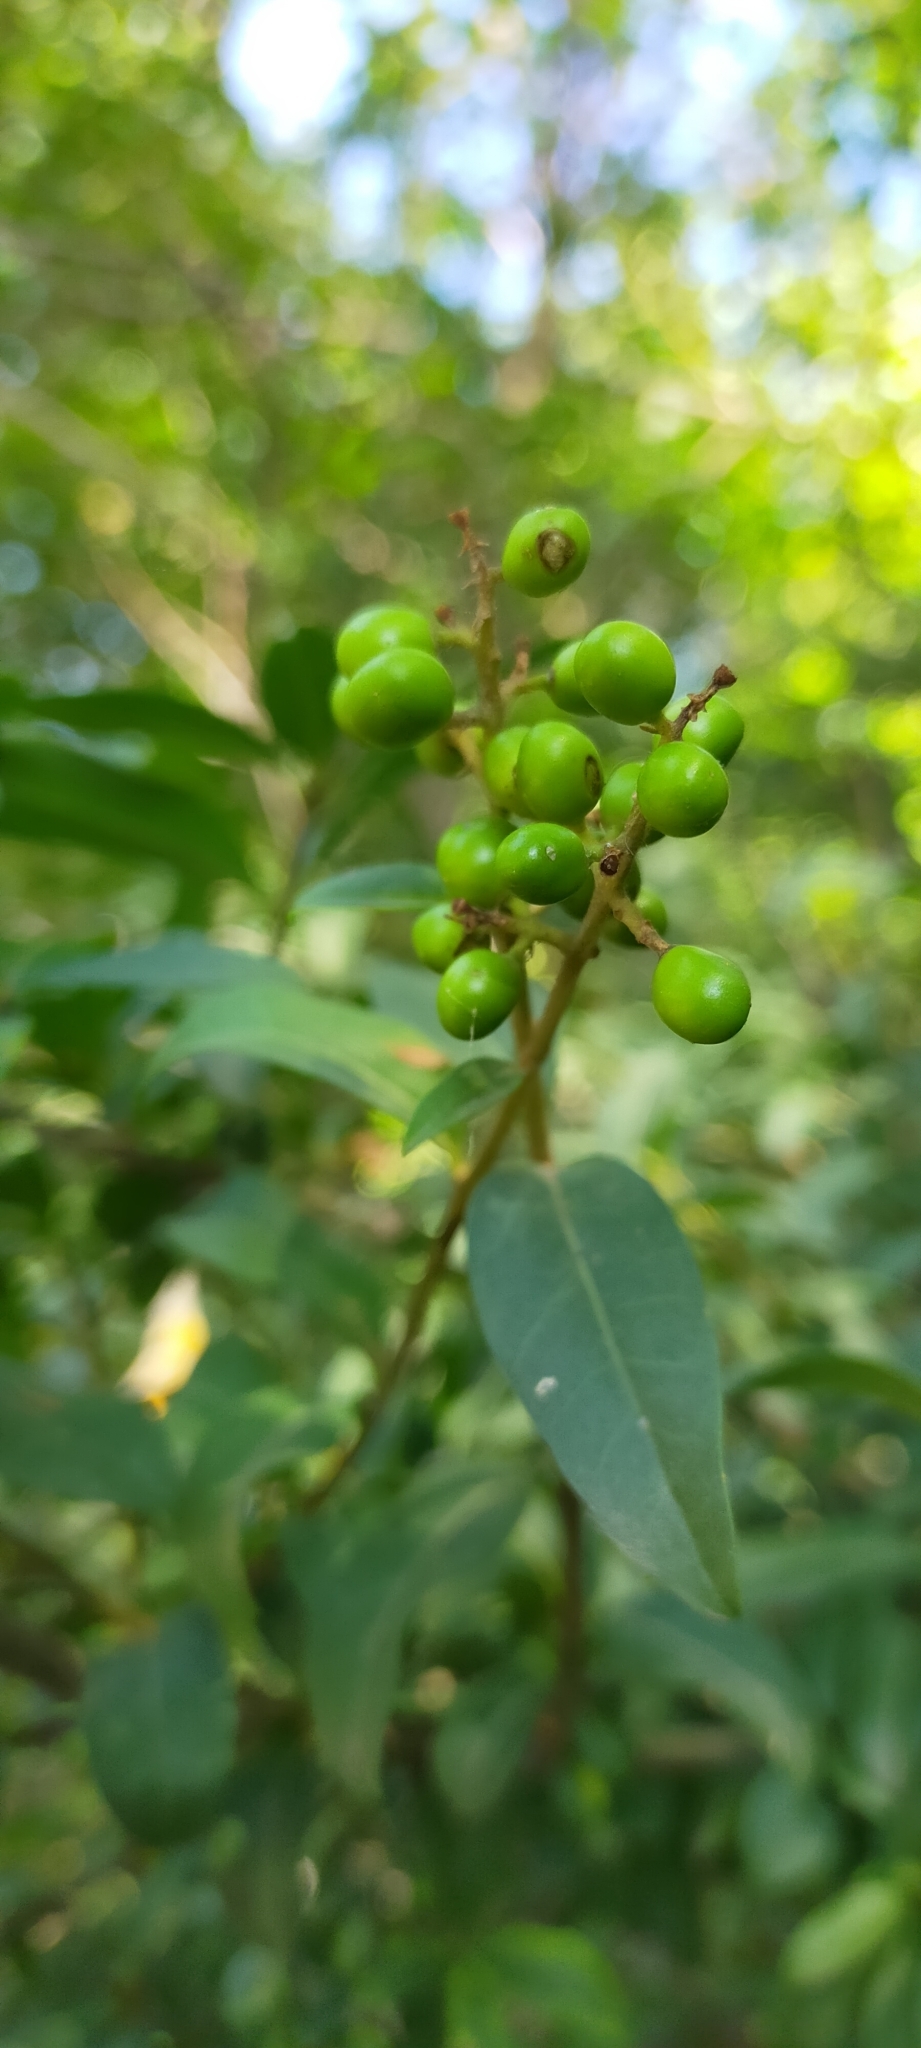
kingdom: Plantae
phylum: Tracheophyta
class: Magnoliopsida
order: Lamiales
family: Oleaceae
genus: Ligustrum
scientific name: Ligustrum vulgare
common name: Wild privet
